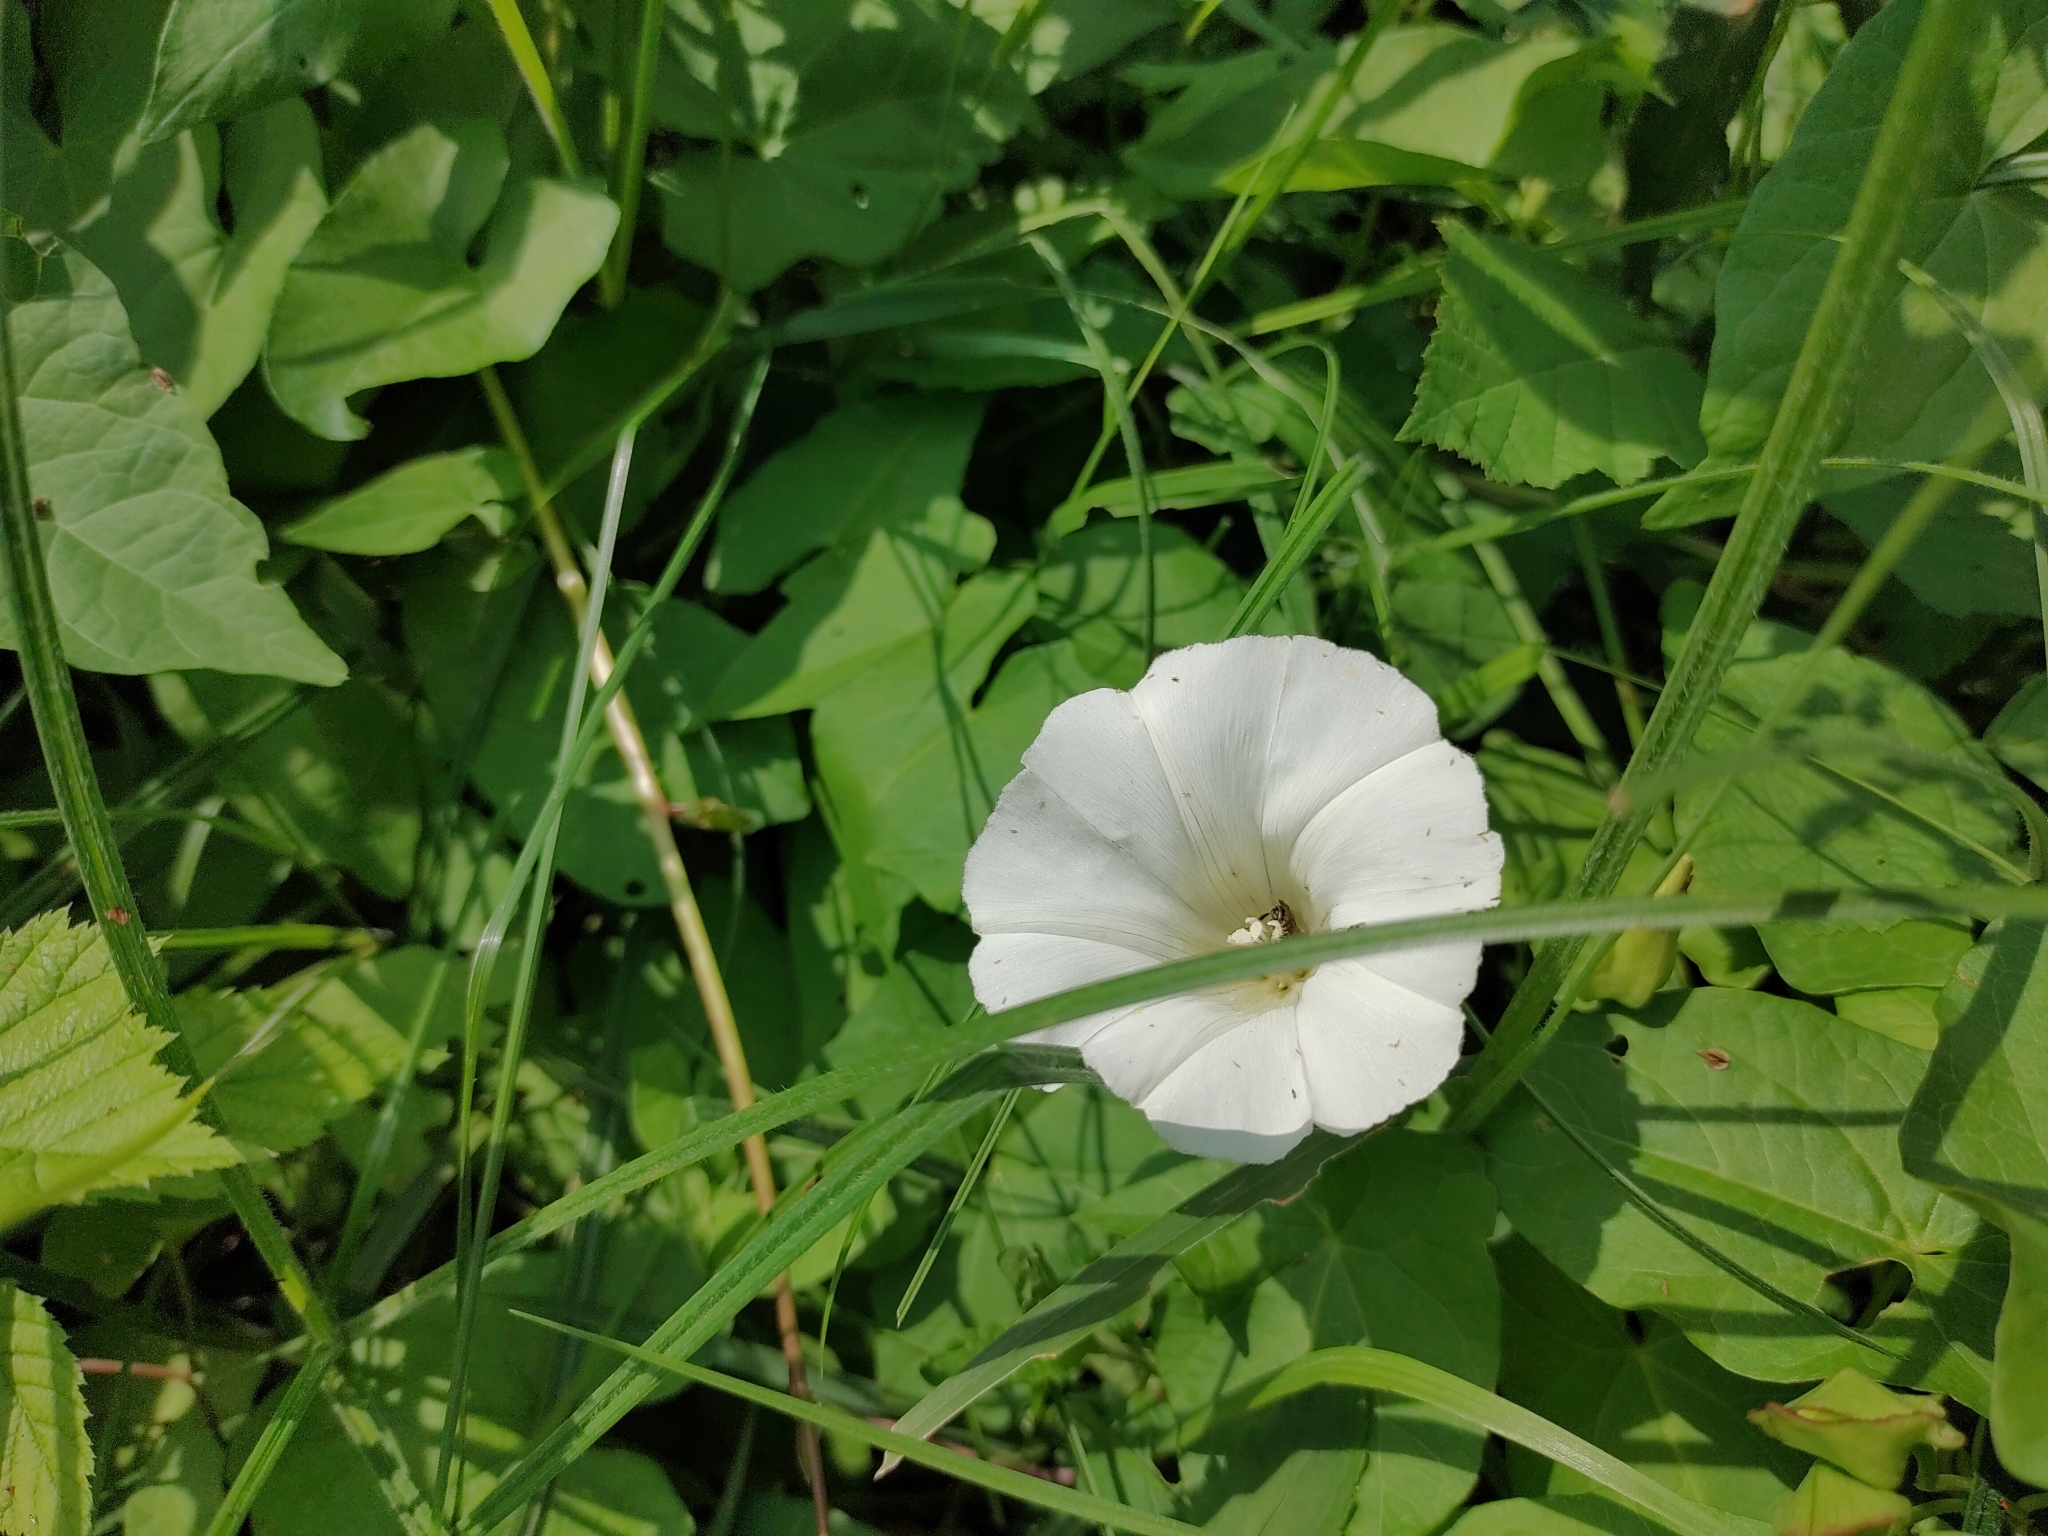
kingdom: Plantae
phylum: Tracheophyta
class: Magnoliopsida
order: Solanales
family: Convolvulaceae
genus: Calystegia
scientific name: Calystegia sepium
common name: Hedge bindweed
